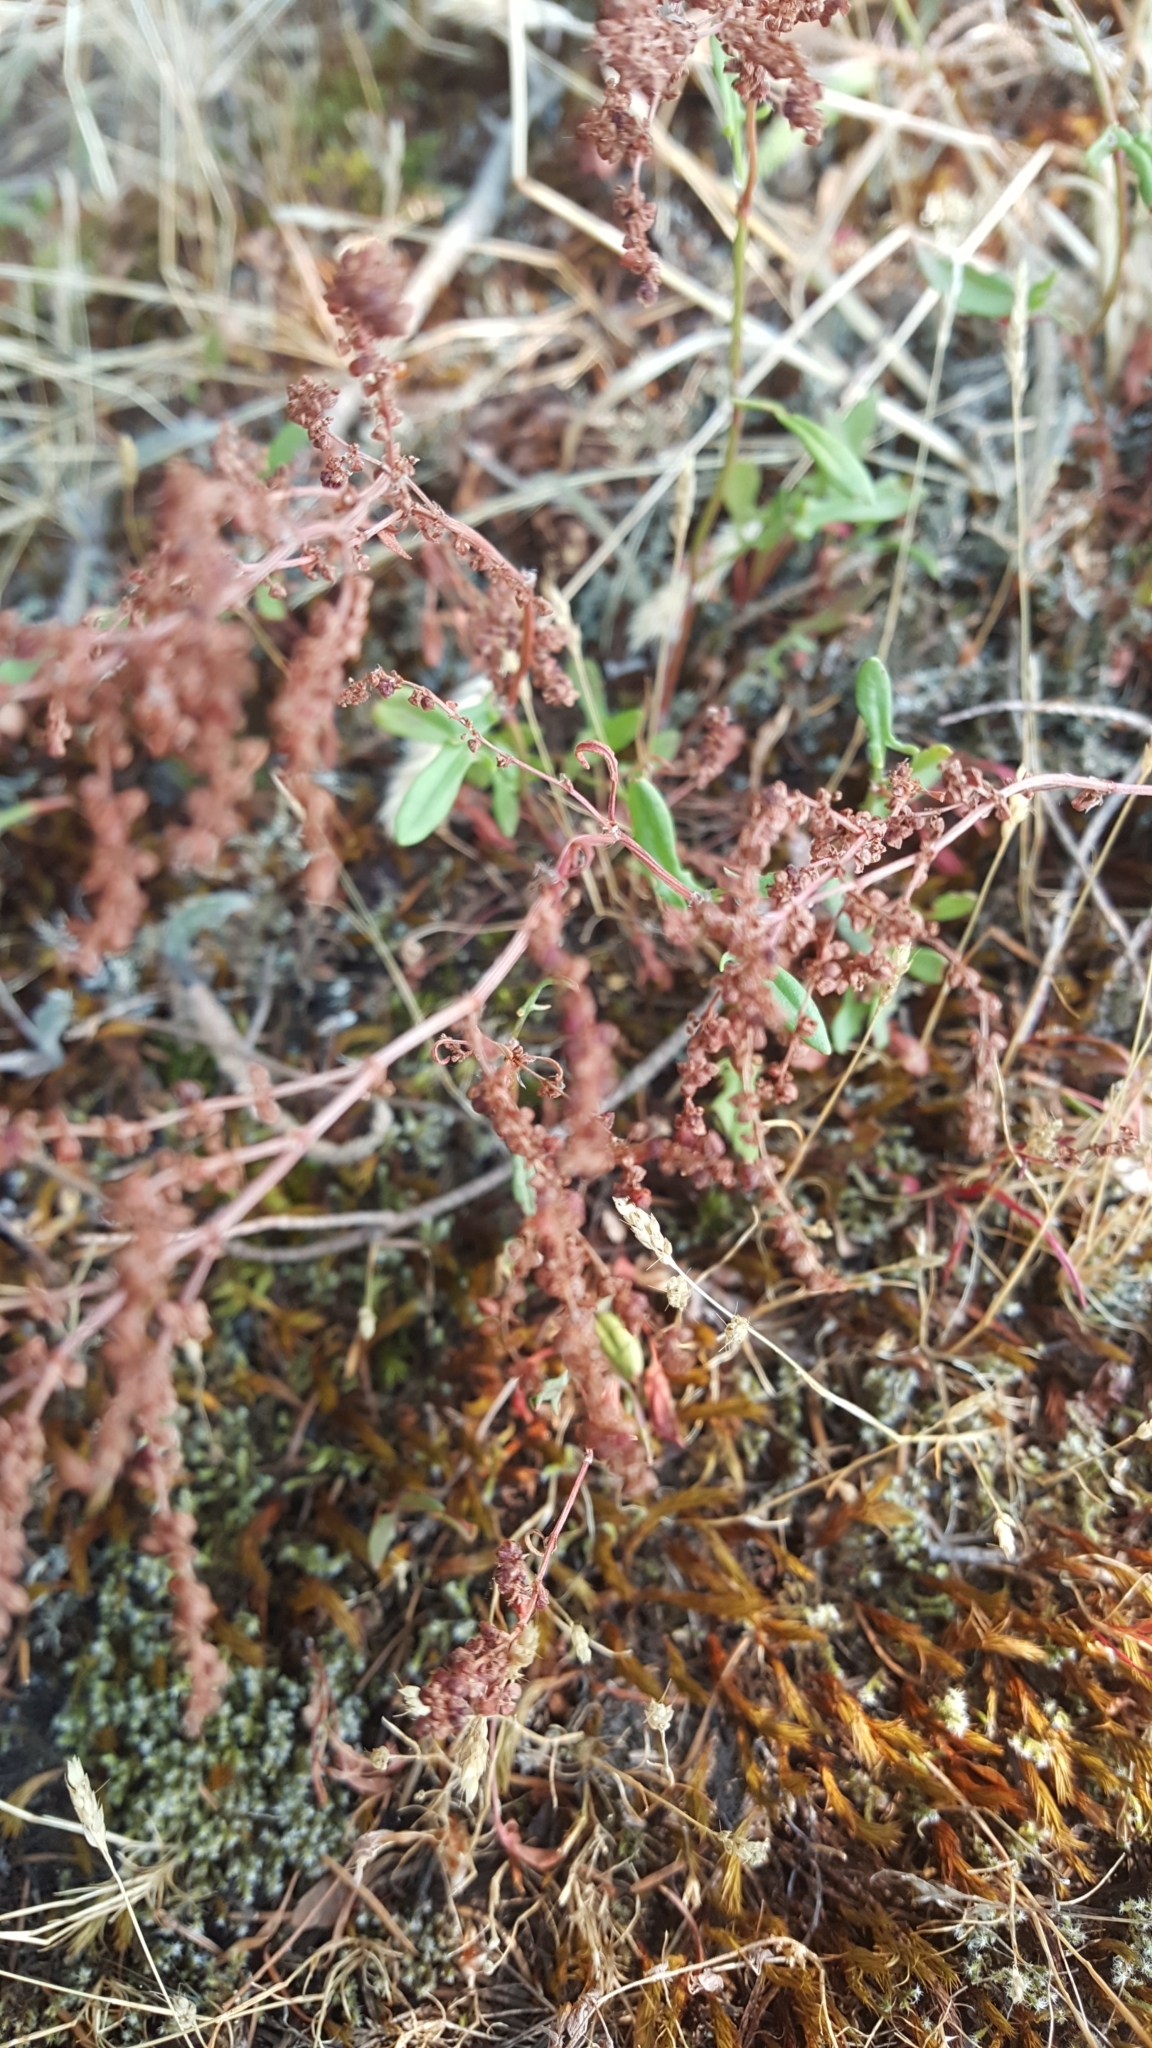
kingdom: Plantae
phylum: Tracheophyta
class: Magnoliopsida
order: Caryophyllales
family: Polygonaceae
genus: Rumex
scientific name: Rumex acetosella
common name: Common sheep sorrel
